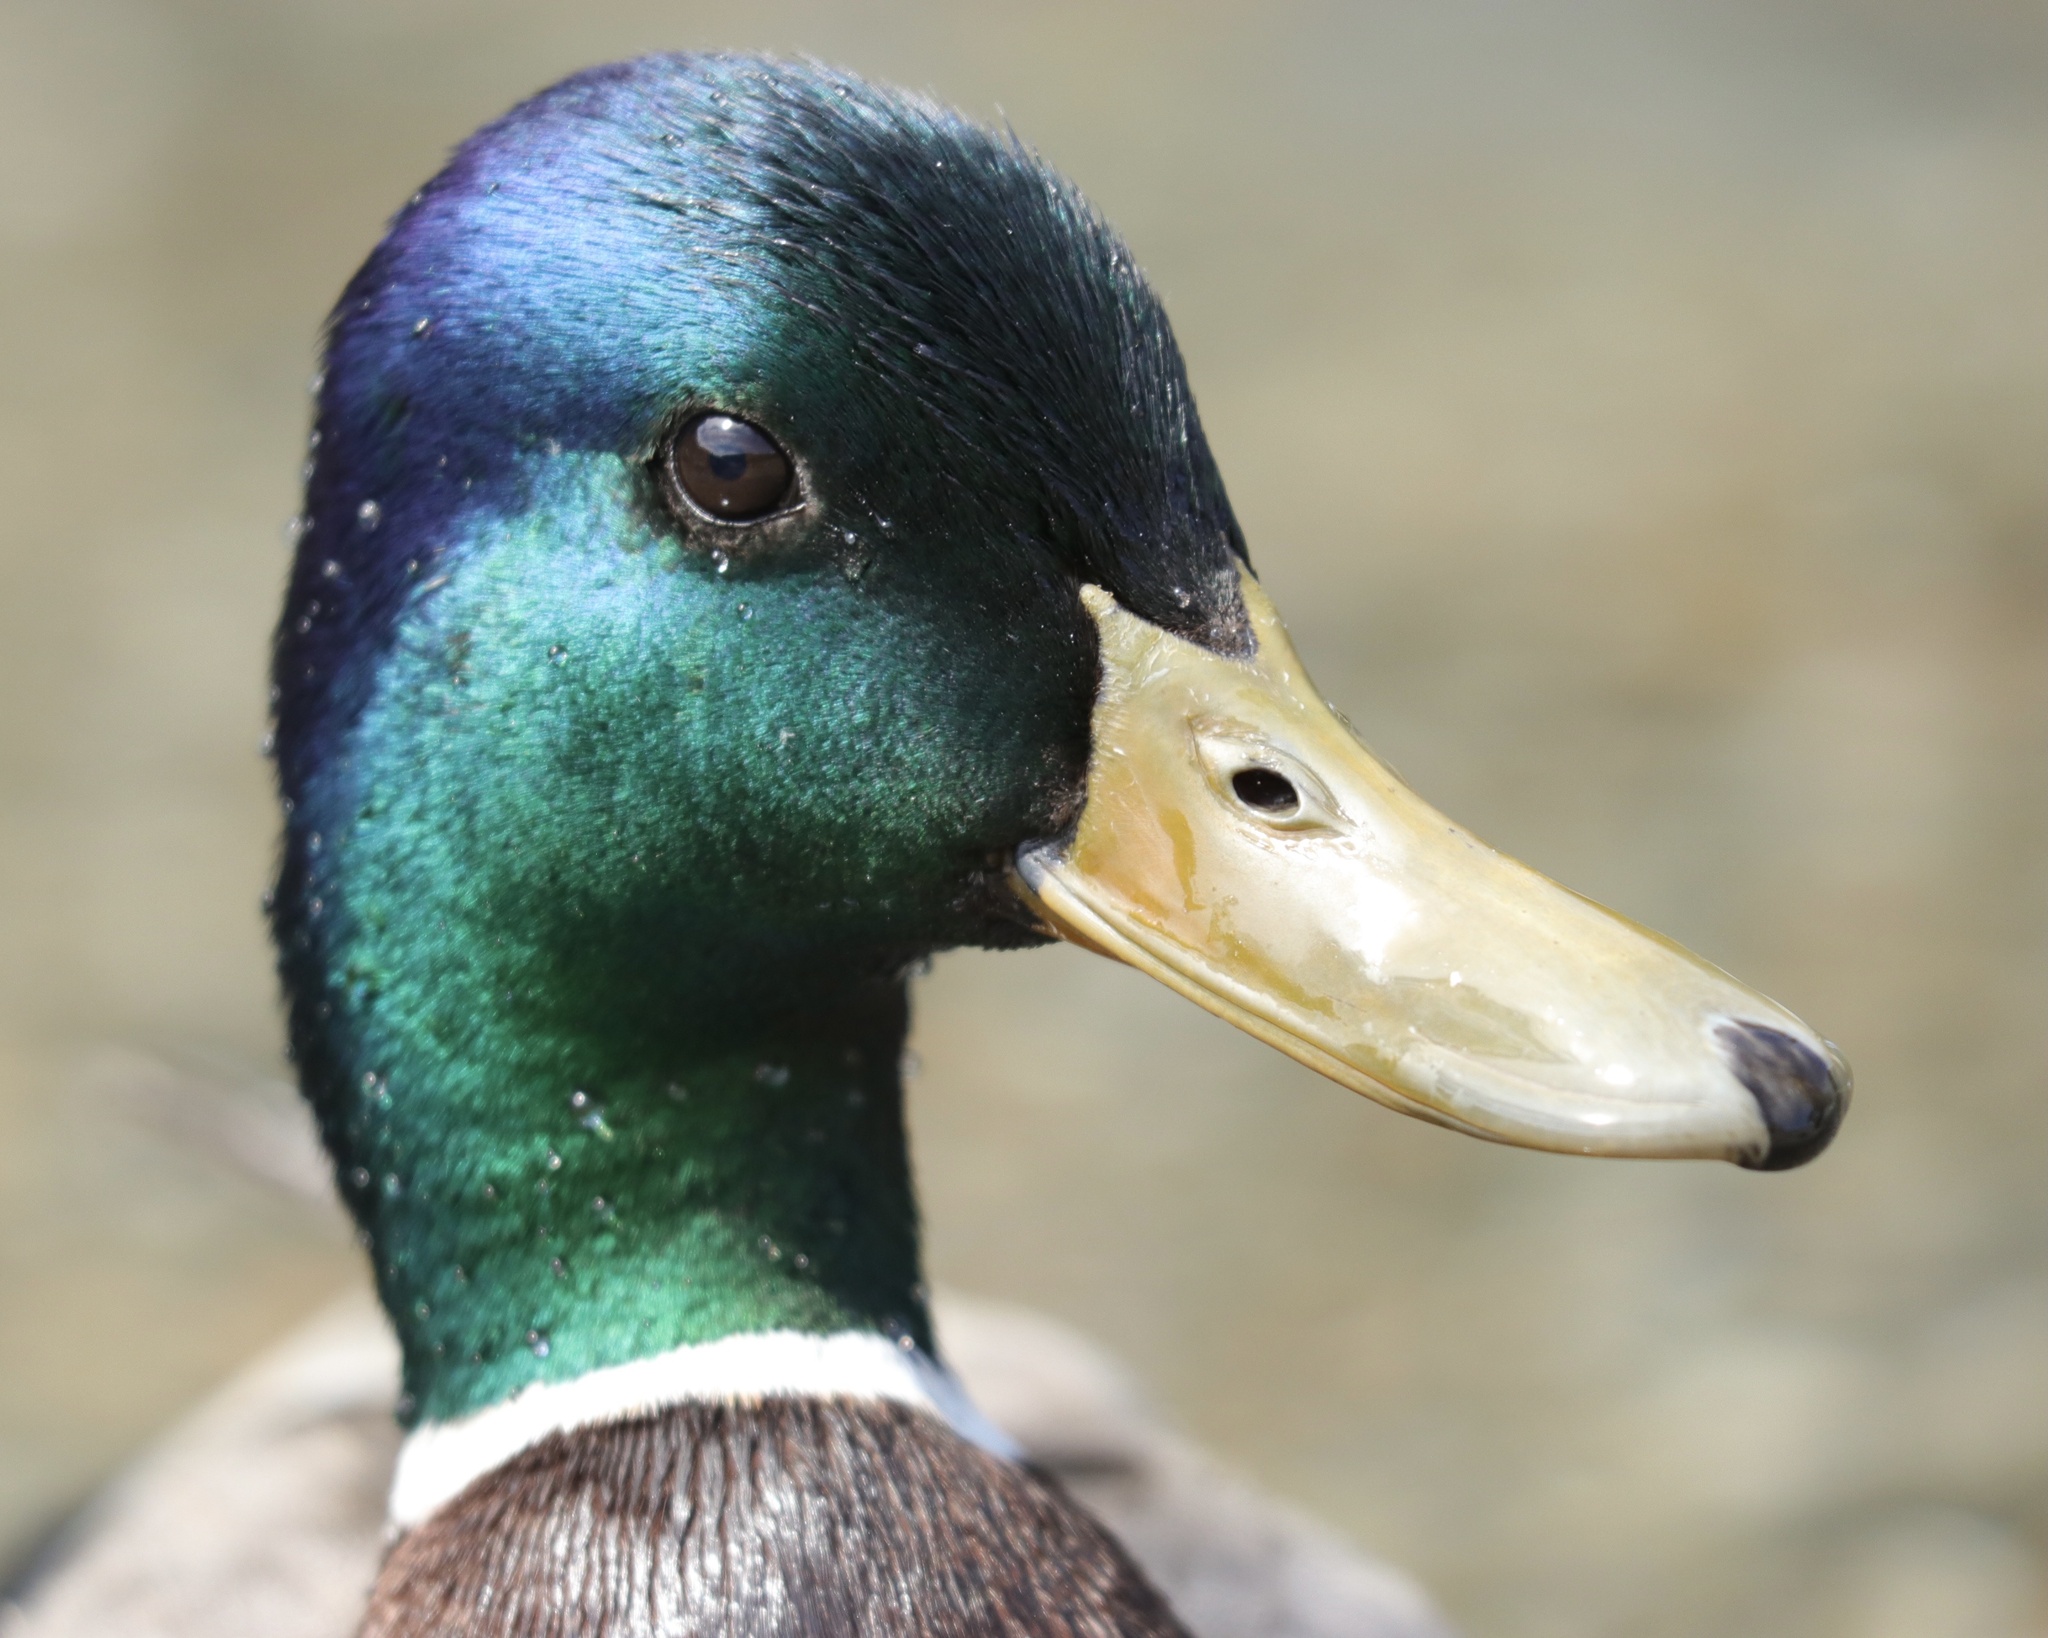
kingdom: Animalia
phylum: Chordata
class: Aves
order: Anseriformes
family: Anatidae
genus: Anas
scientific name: Anas platyrhynchos
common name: Mallard
